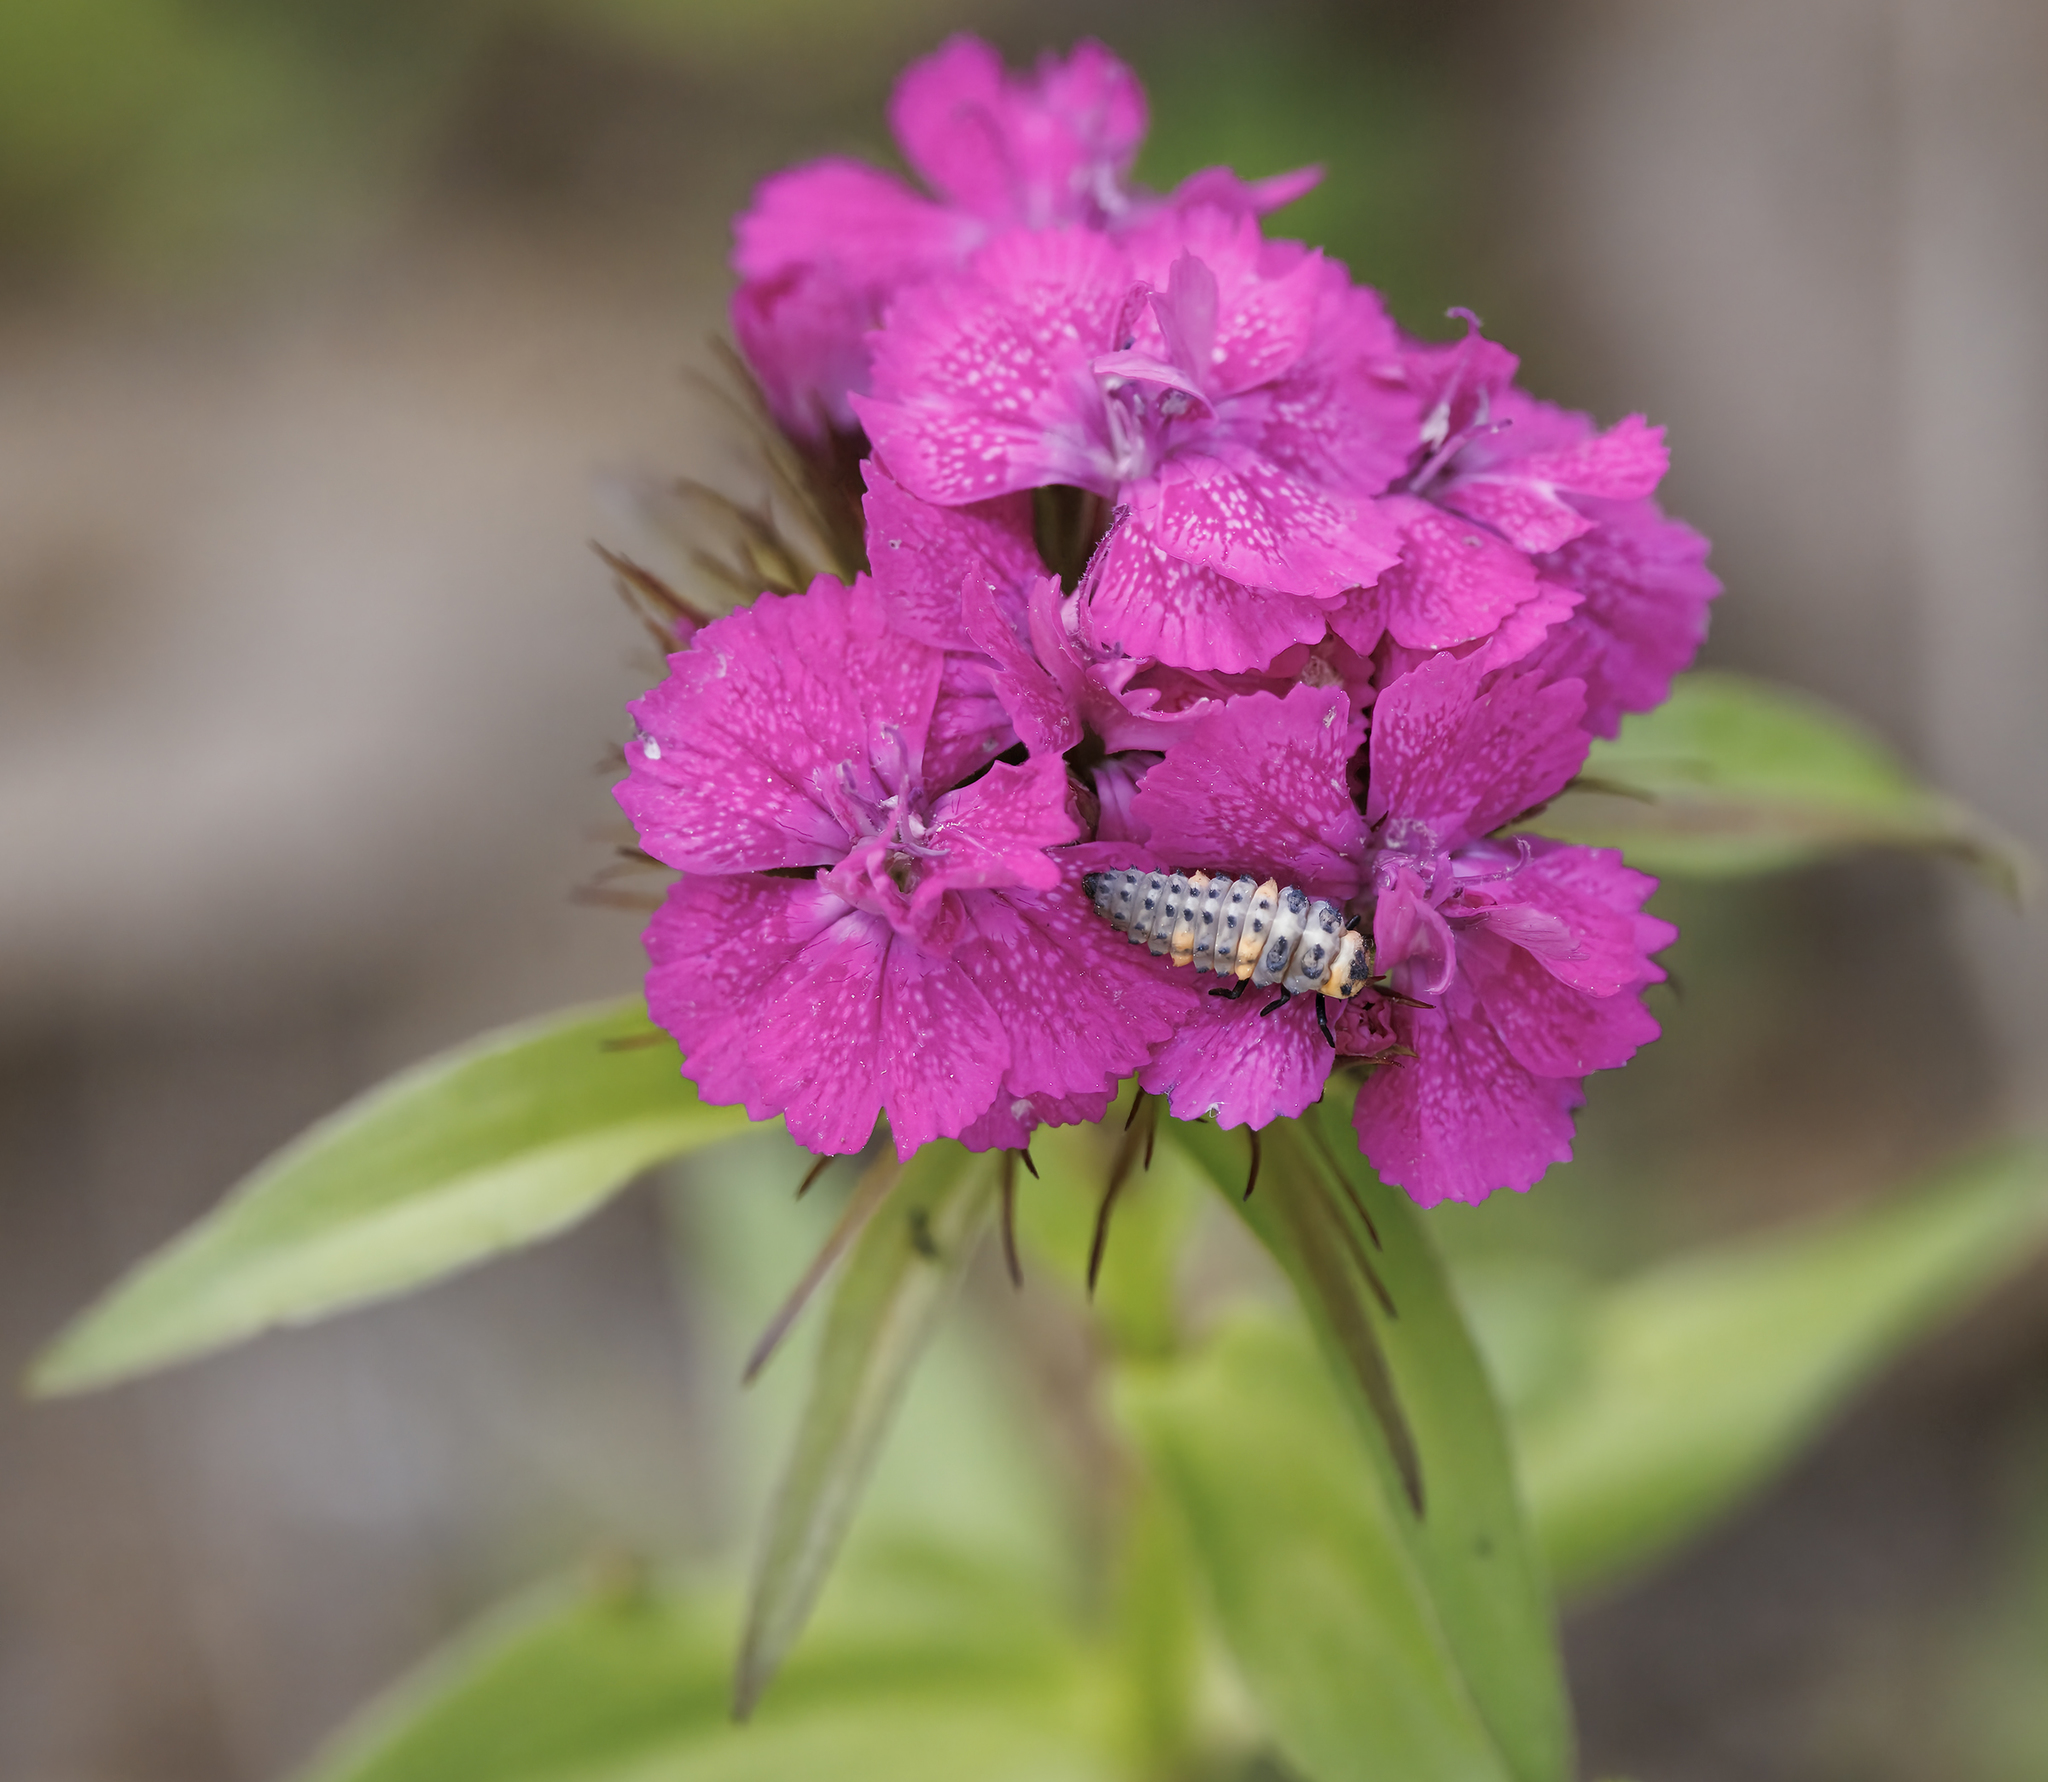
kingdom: Animalia
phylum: Arthropoda
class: Insecta
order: Coleoptera
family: Coccinellidae
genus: Coccinella
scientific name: Coccinella septempunctata
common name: Sevenspotted lady beetle
